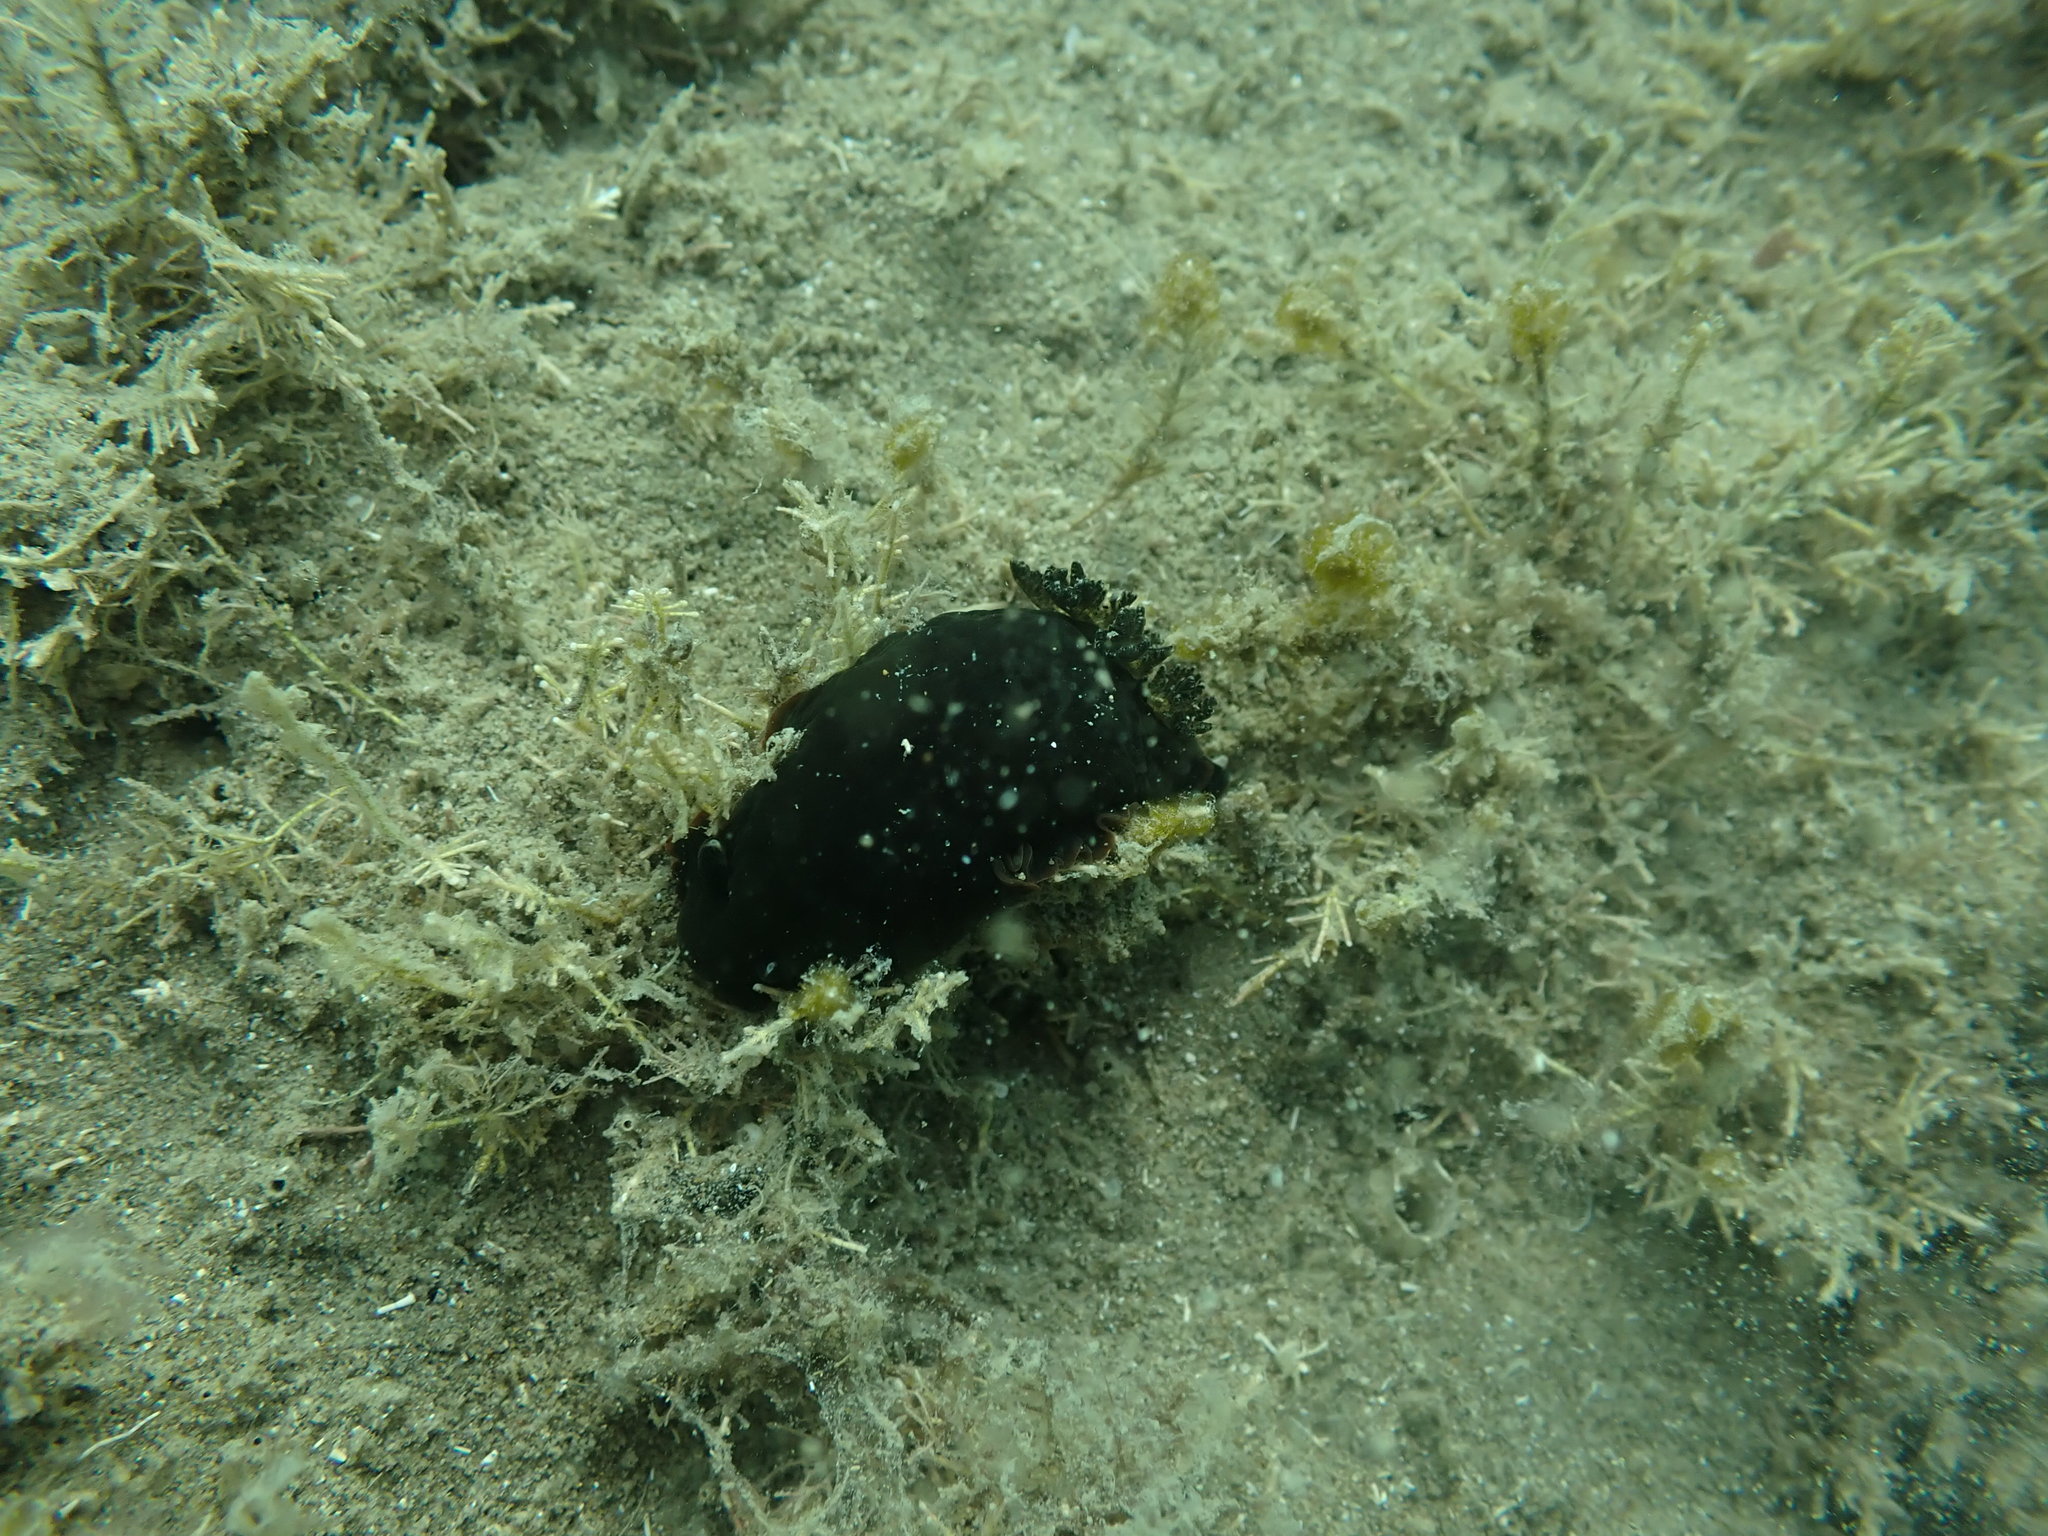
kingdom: Animalia
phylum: Mollusca
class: Gastropoda
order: Nudibranchia
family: Dendrodorididae
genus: Dendrodoris
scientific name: Dendrodoris nigra
